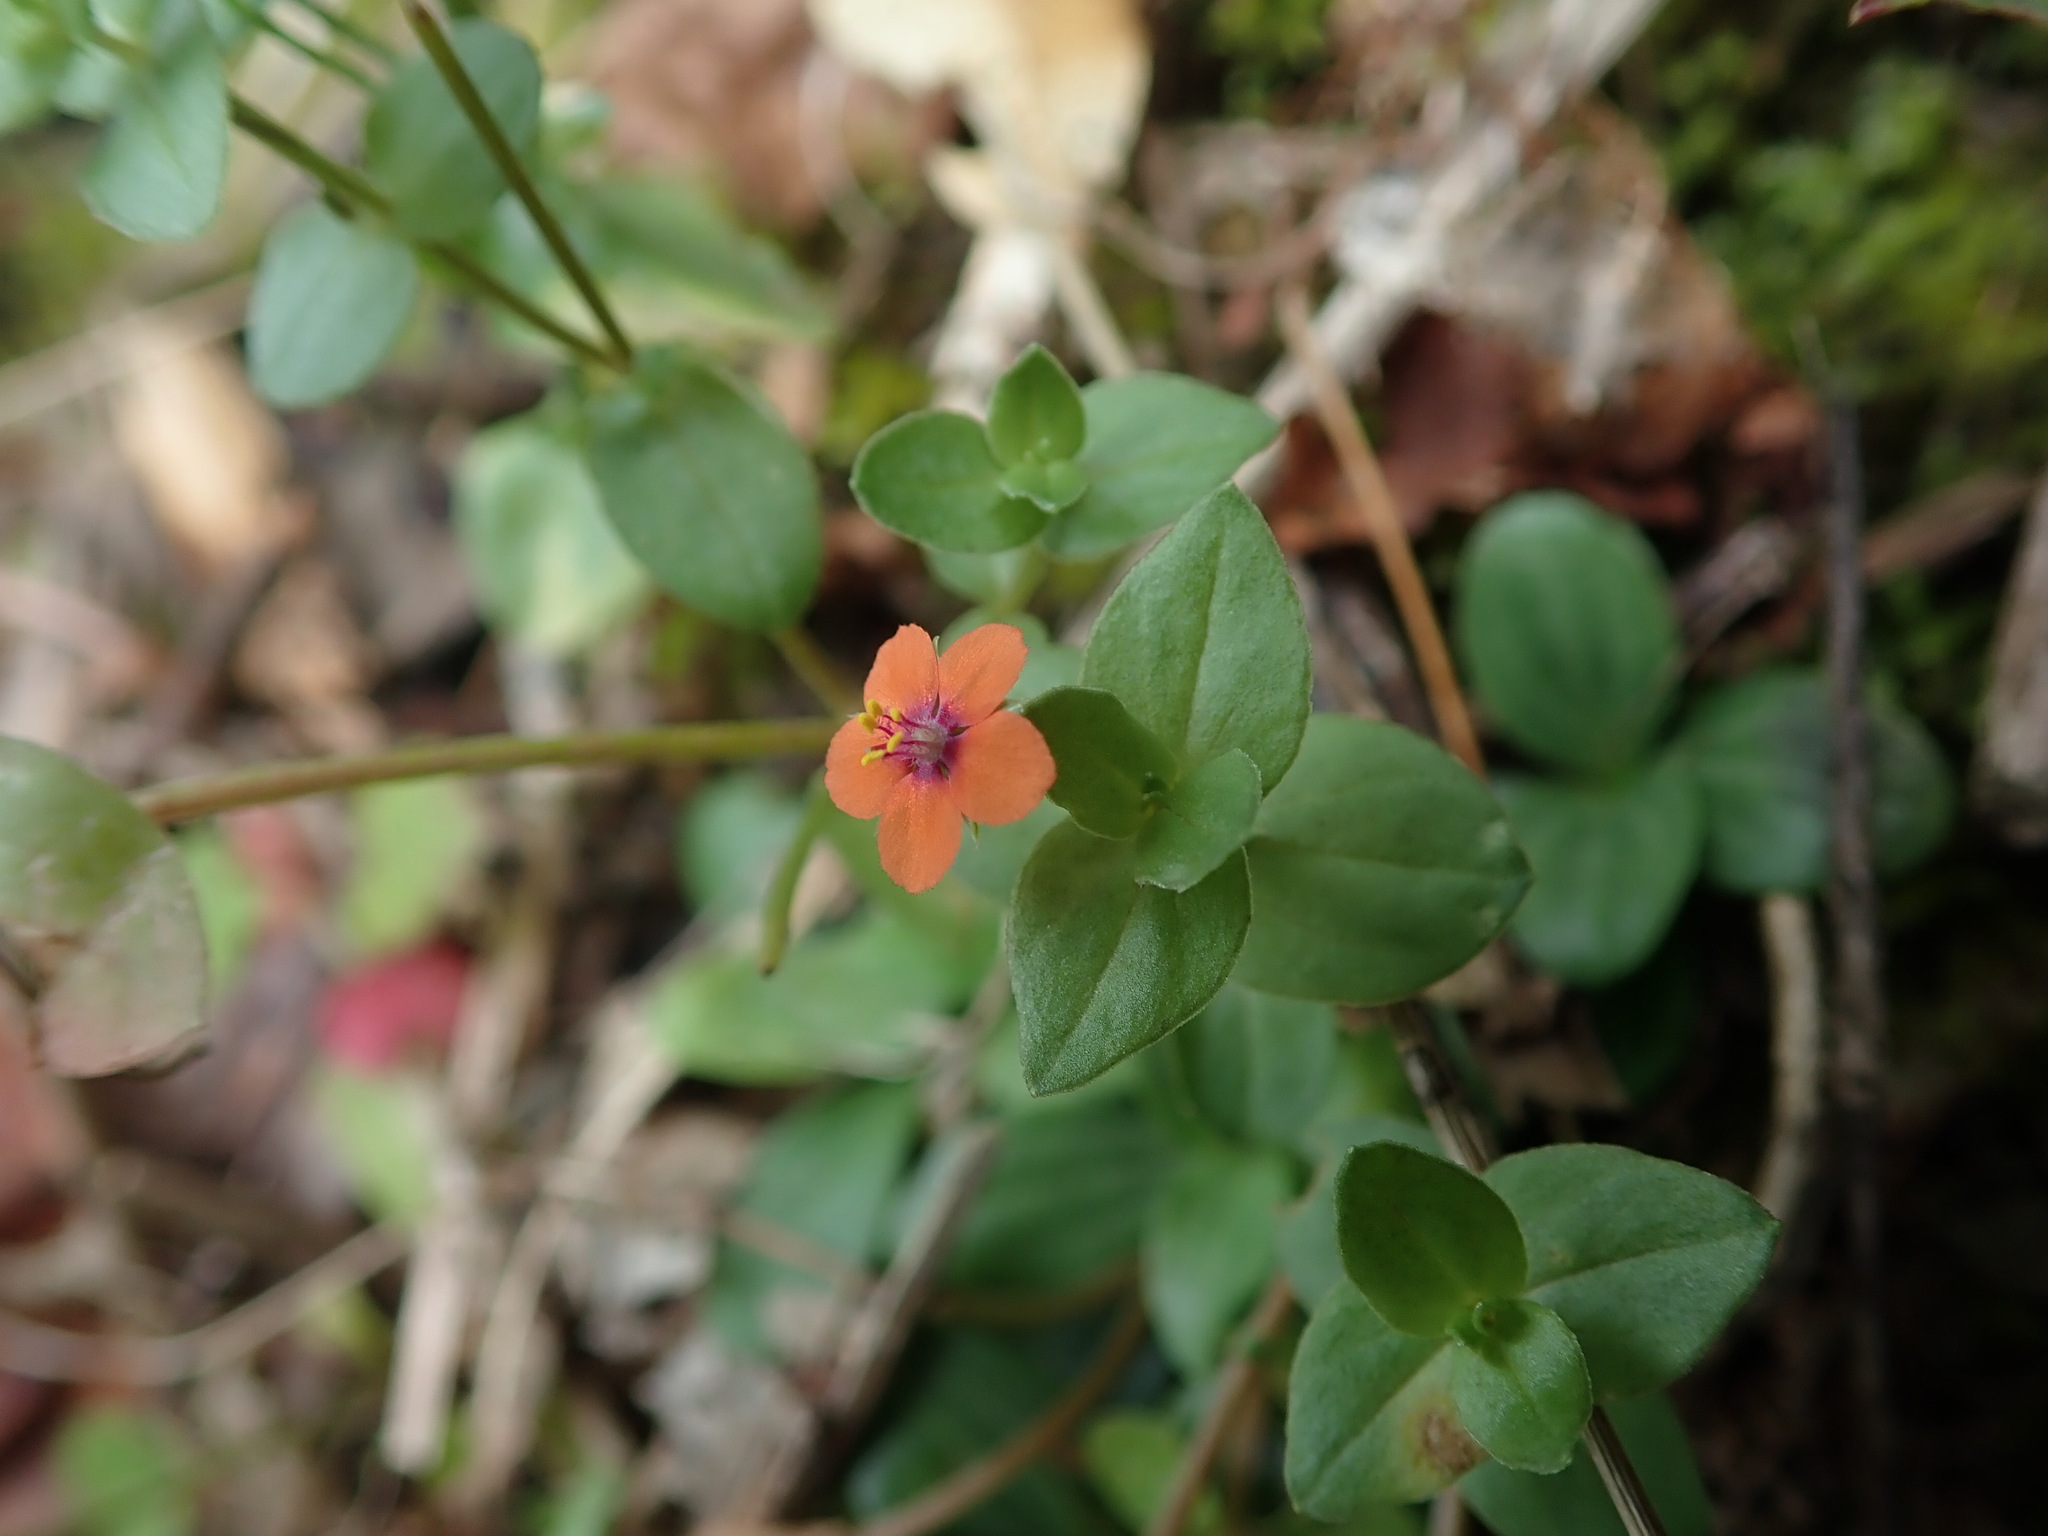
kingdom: Plantae
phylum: Tracheophyta
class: Magnoliopsida
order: Ericales
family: Primulaceae
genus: Lysimachia
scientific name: Lysimachia arvensis
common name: Scarlet pimpernel
